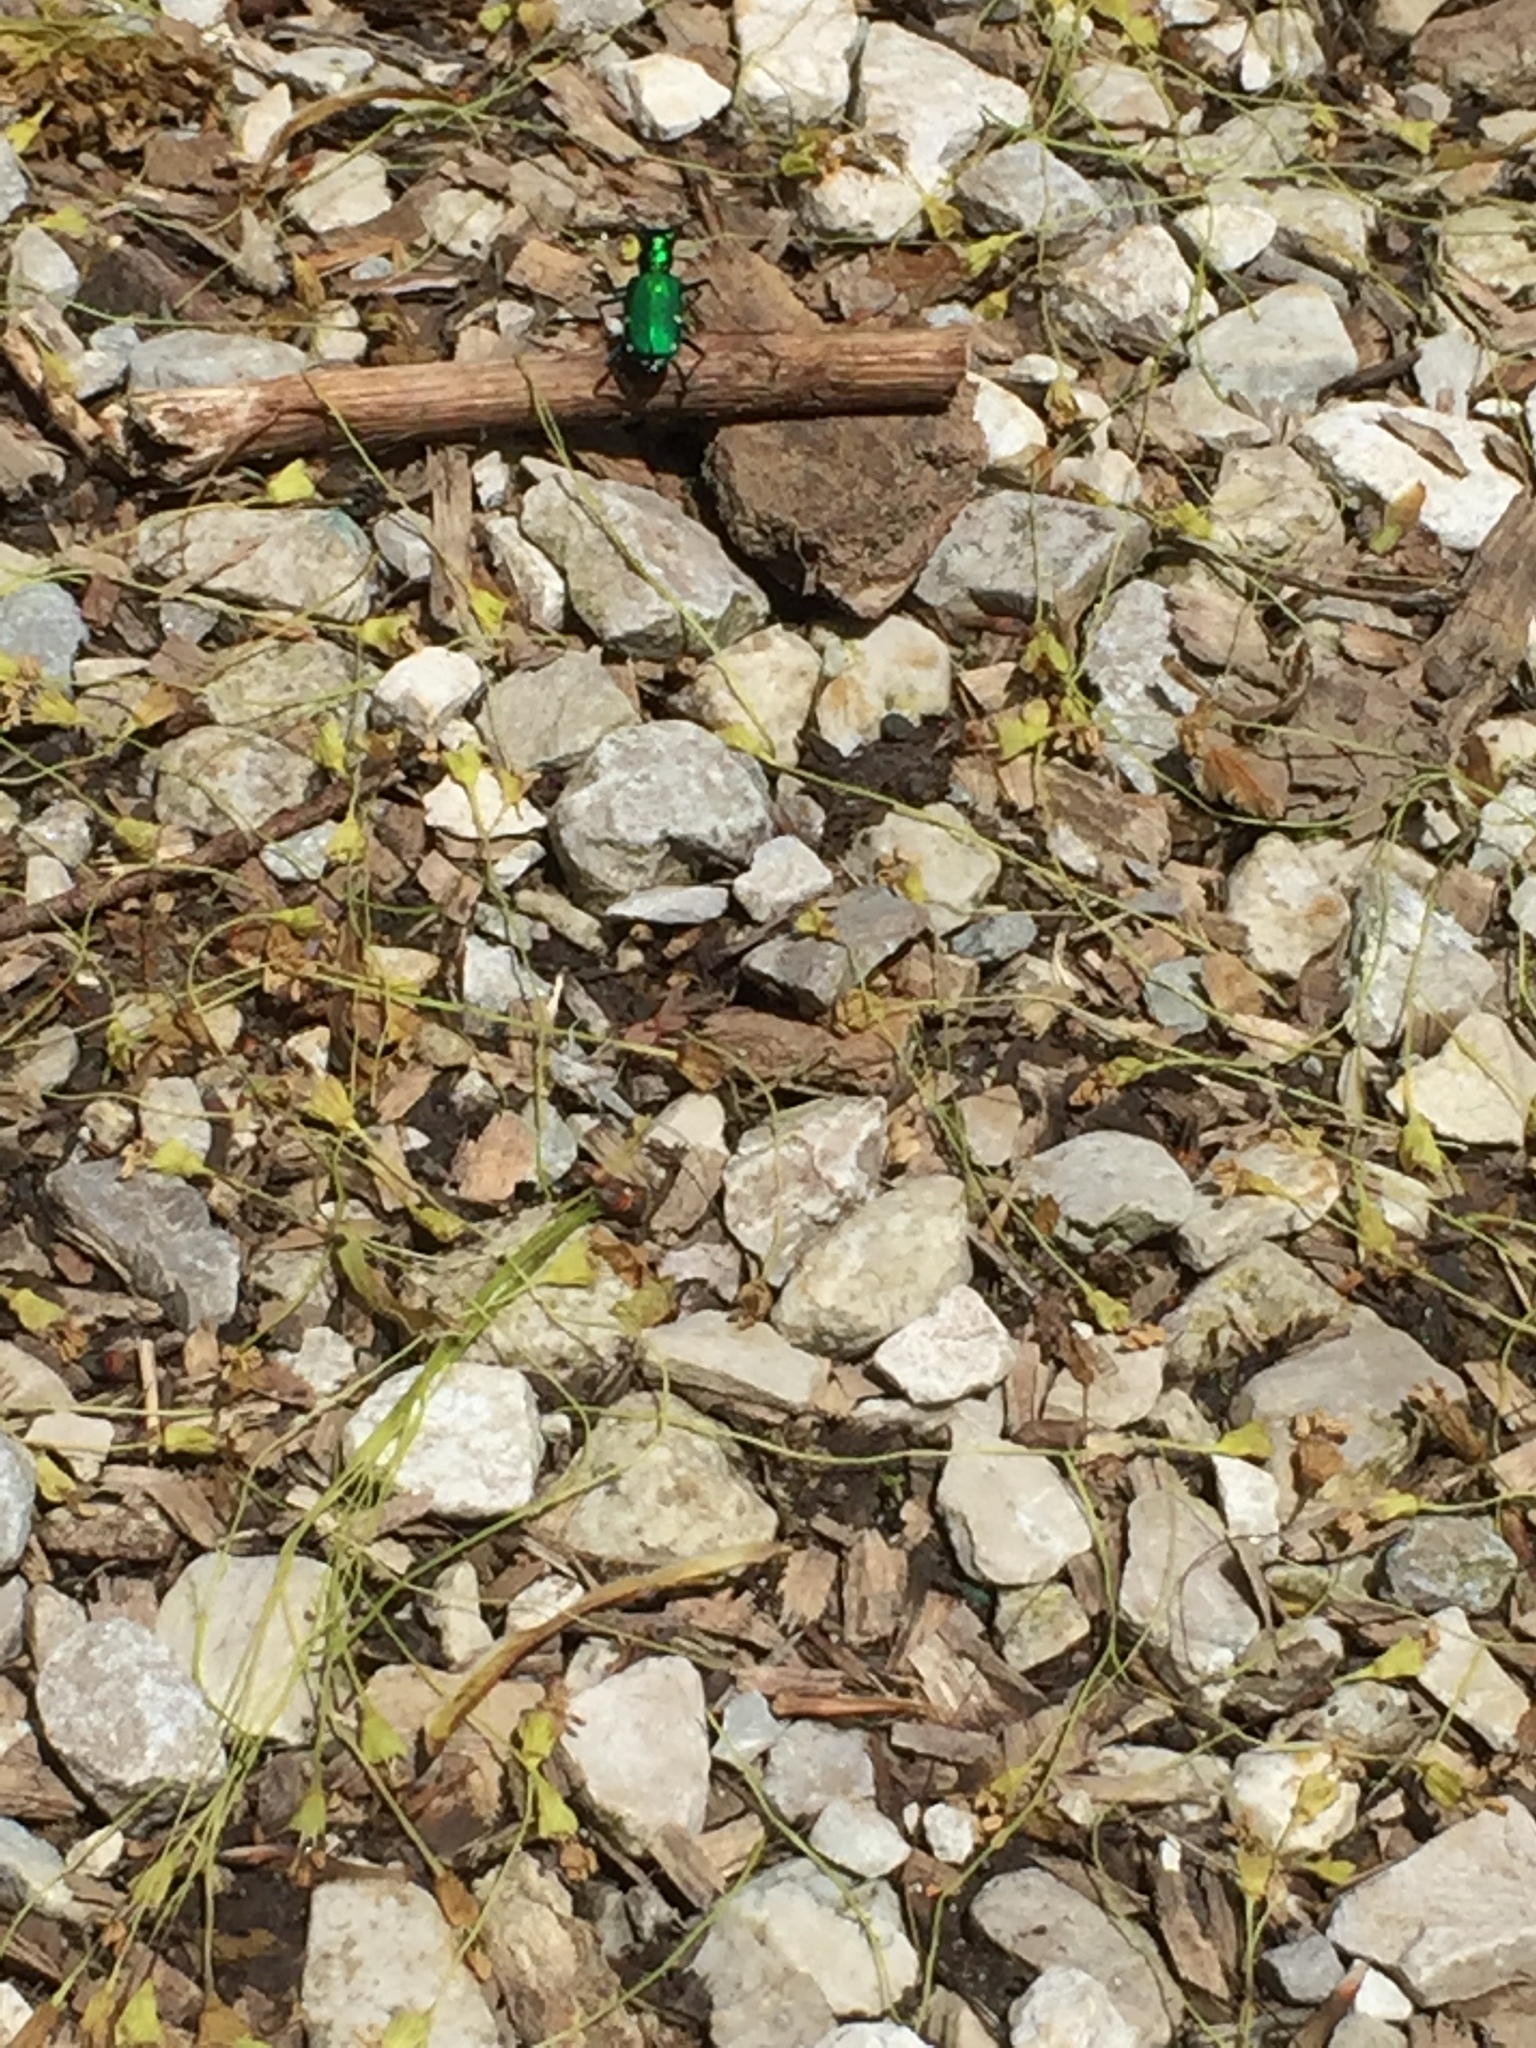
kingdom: Animalia
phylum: Arthropoda
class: Insecta
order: Coleoptera
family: Carabidae
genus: Cicindela
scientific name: Cicindela sexguttata
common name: Six-spotted tiger beetle
